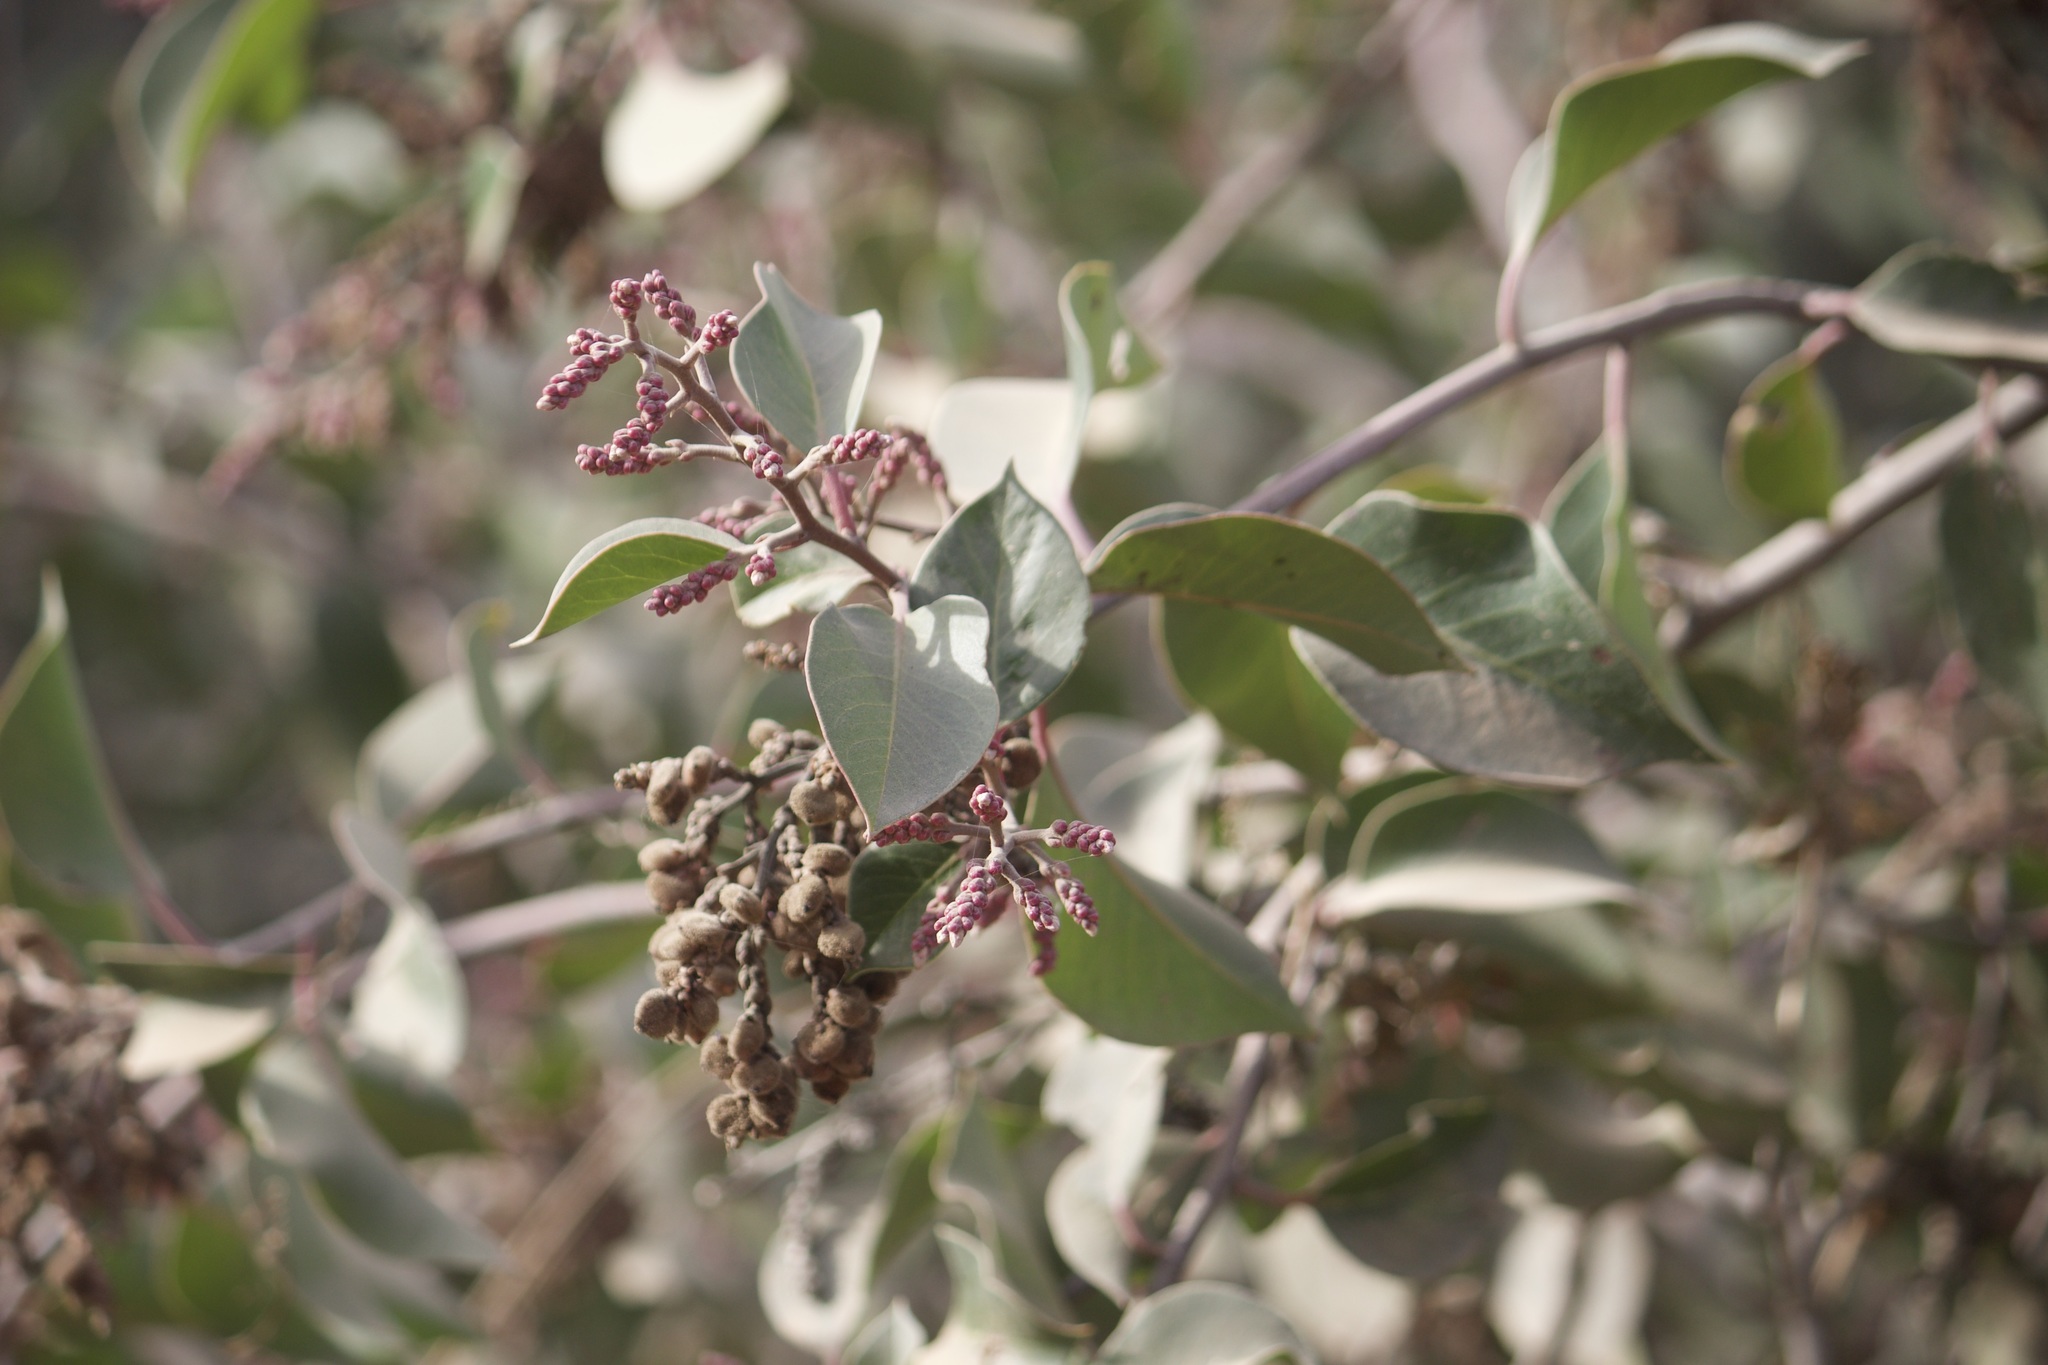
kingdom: Plantae
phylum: Tracheophyta
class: Magnoliopsida
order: Sapindales
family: Anacardiaceae
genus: Rhus
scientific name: Rhus ovata
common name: Sugar sumac
